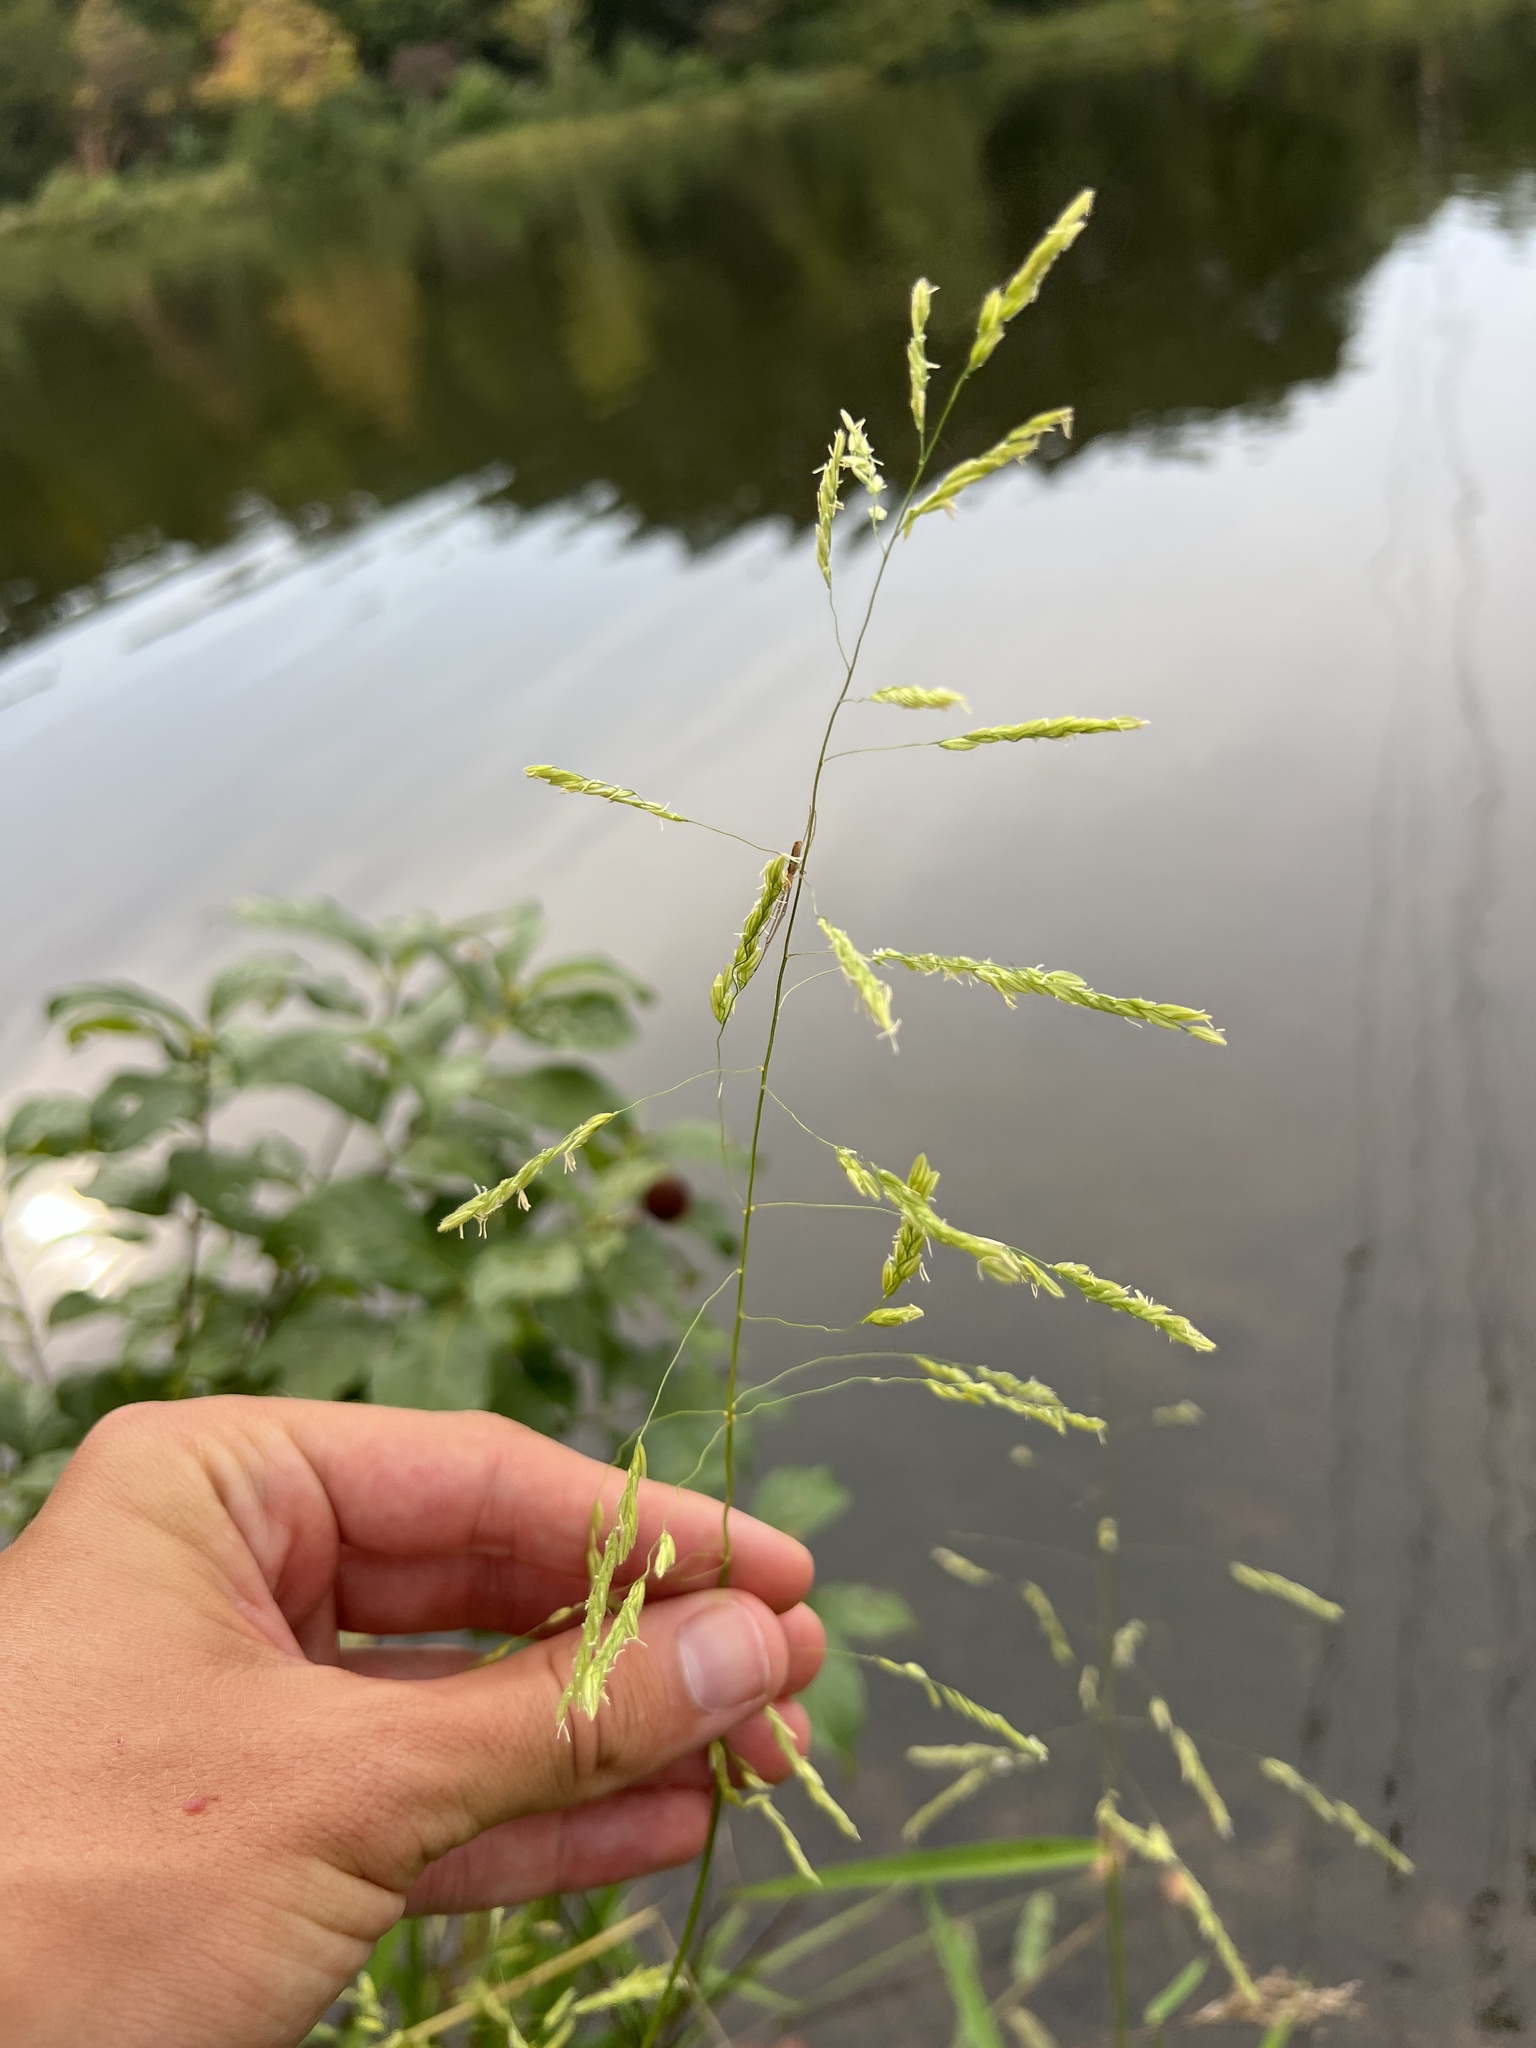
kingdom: Plantae
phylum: Tracheophyta
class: Liliopsida
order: Poales
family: Poaceae
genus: Leersia
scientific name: Leersia oryzoides
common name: Cut-grass
